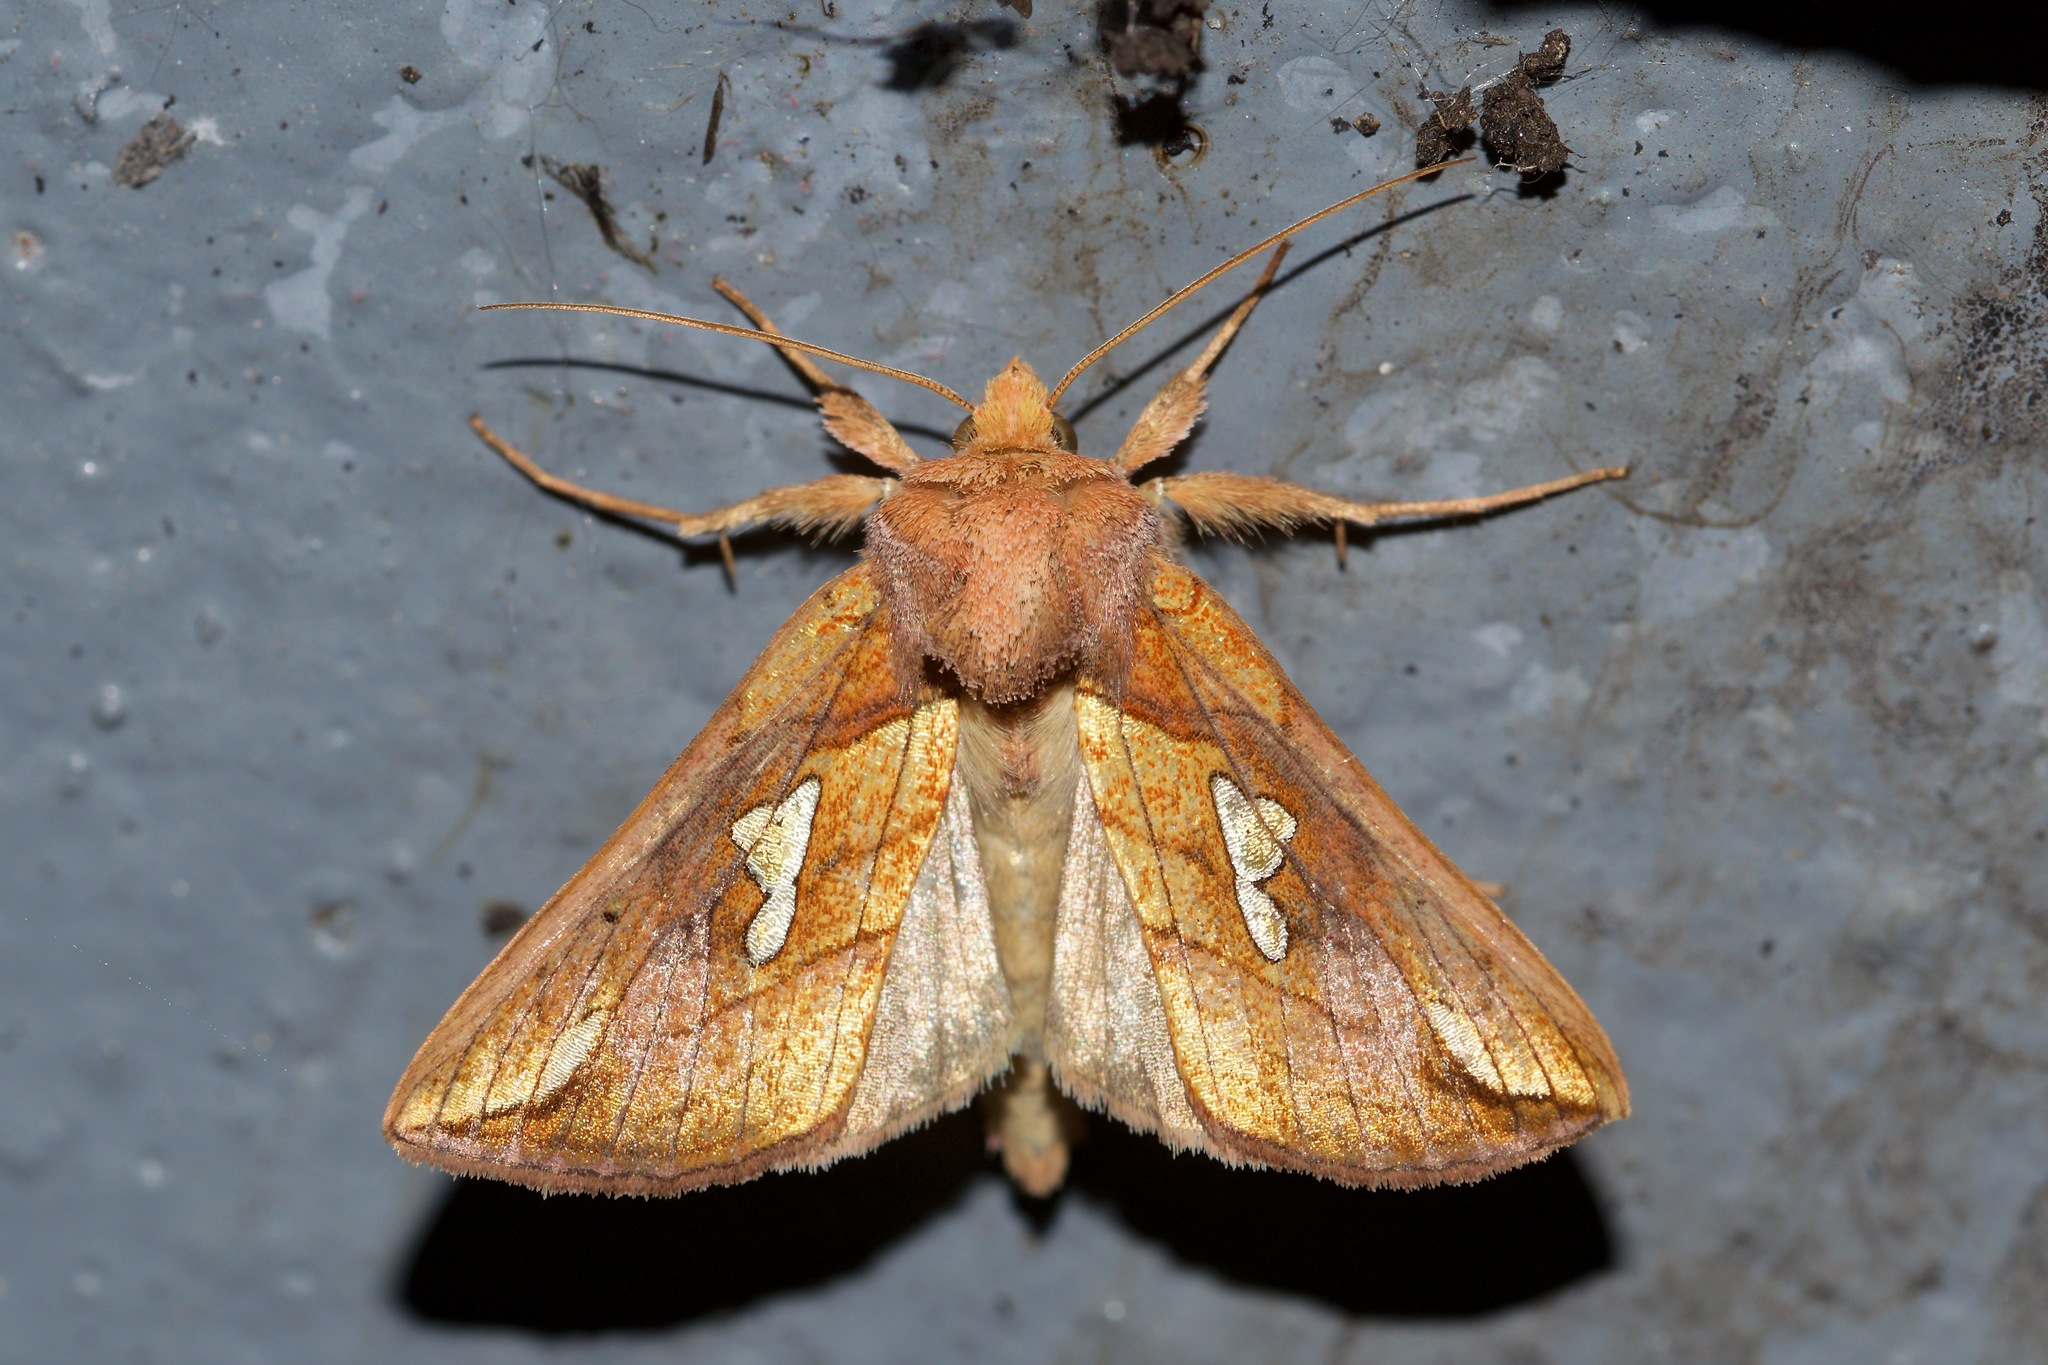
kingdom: Animalia
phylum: Arthropoda
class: Insecta
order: Lepidoptera
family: Noctuidae
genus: Plusia
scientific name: Plusia putnami
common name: Lempke's gold spot
